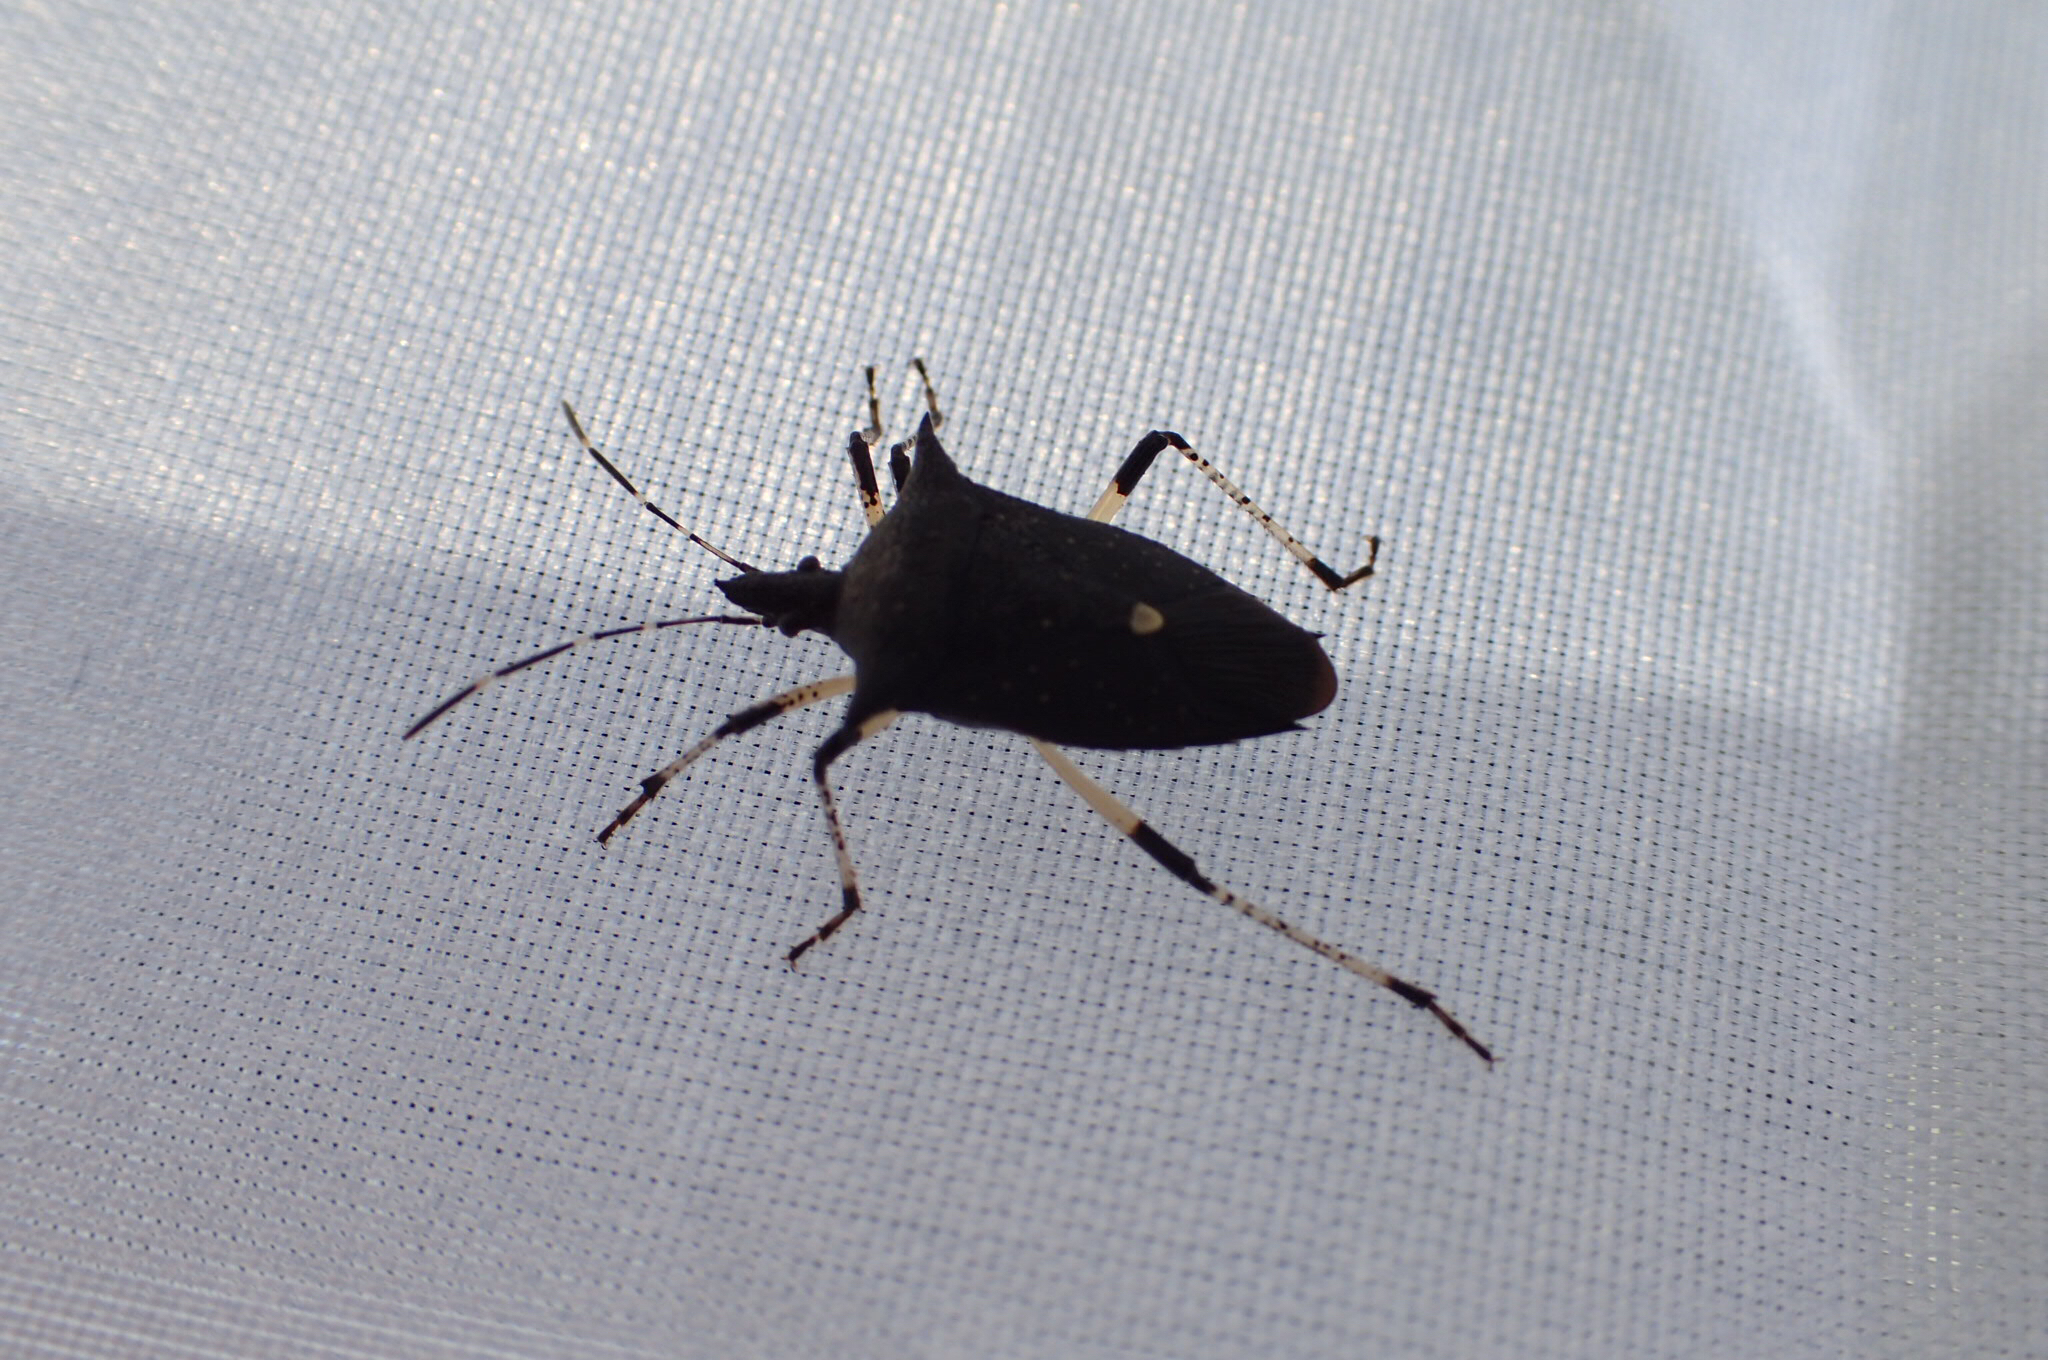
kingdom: Animalia
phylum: Arthropoda
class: Insecta
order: Hemiptera
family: Pentatomidae
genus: Proxys
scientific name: Proxys punctulatus
